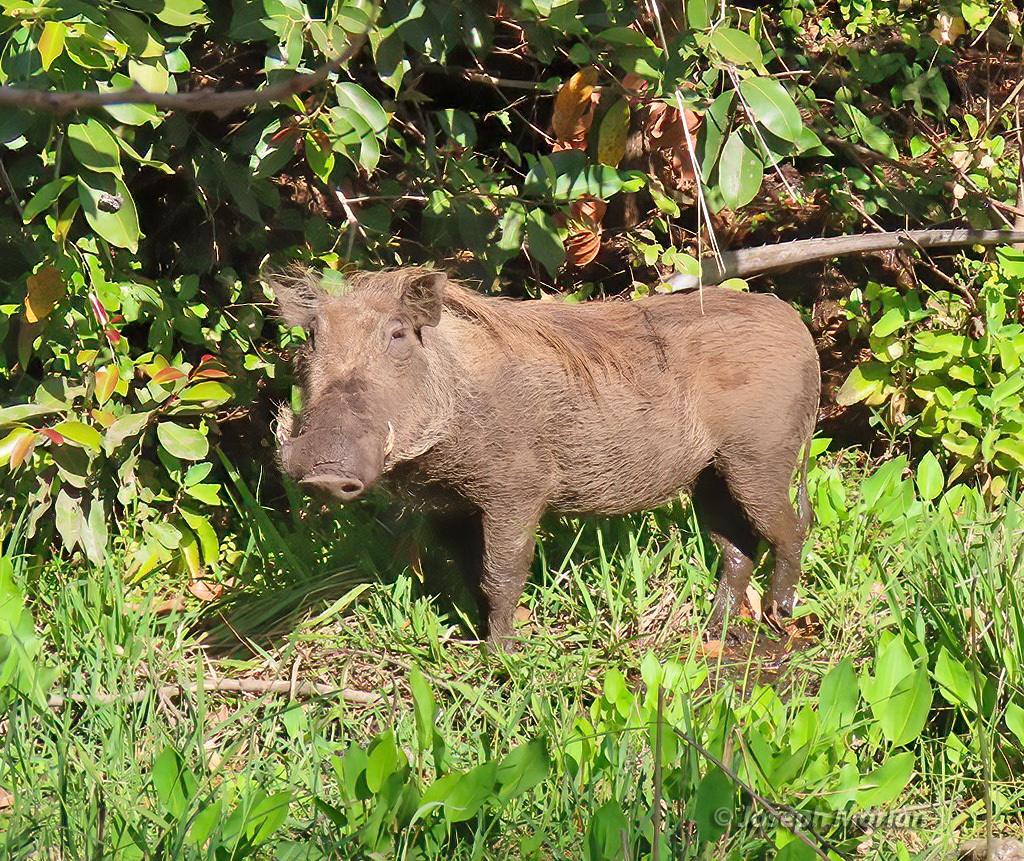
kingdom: Animalia
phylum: Chordata
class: Mammalia
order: Artiodactyla
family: Suidae
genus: Phacochoerus
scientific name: Phacochoerus africanus
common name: Common warthog
